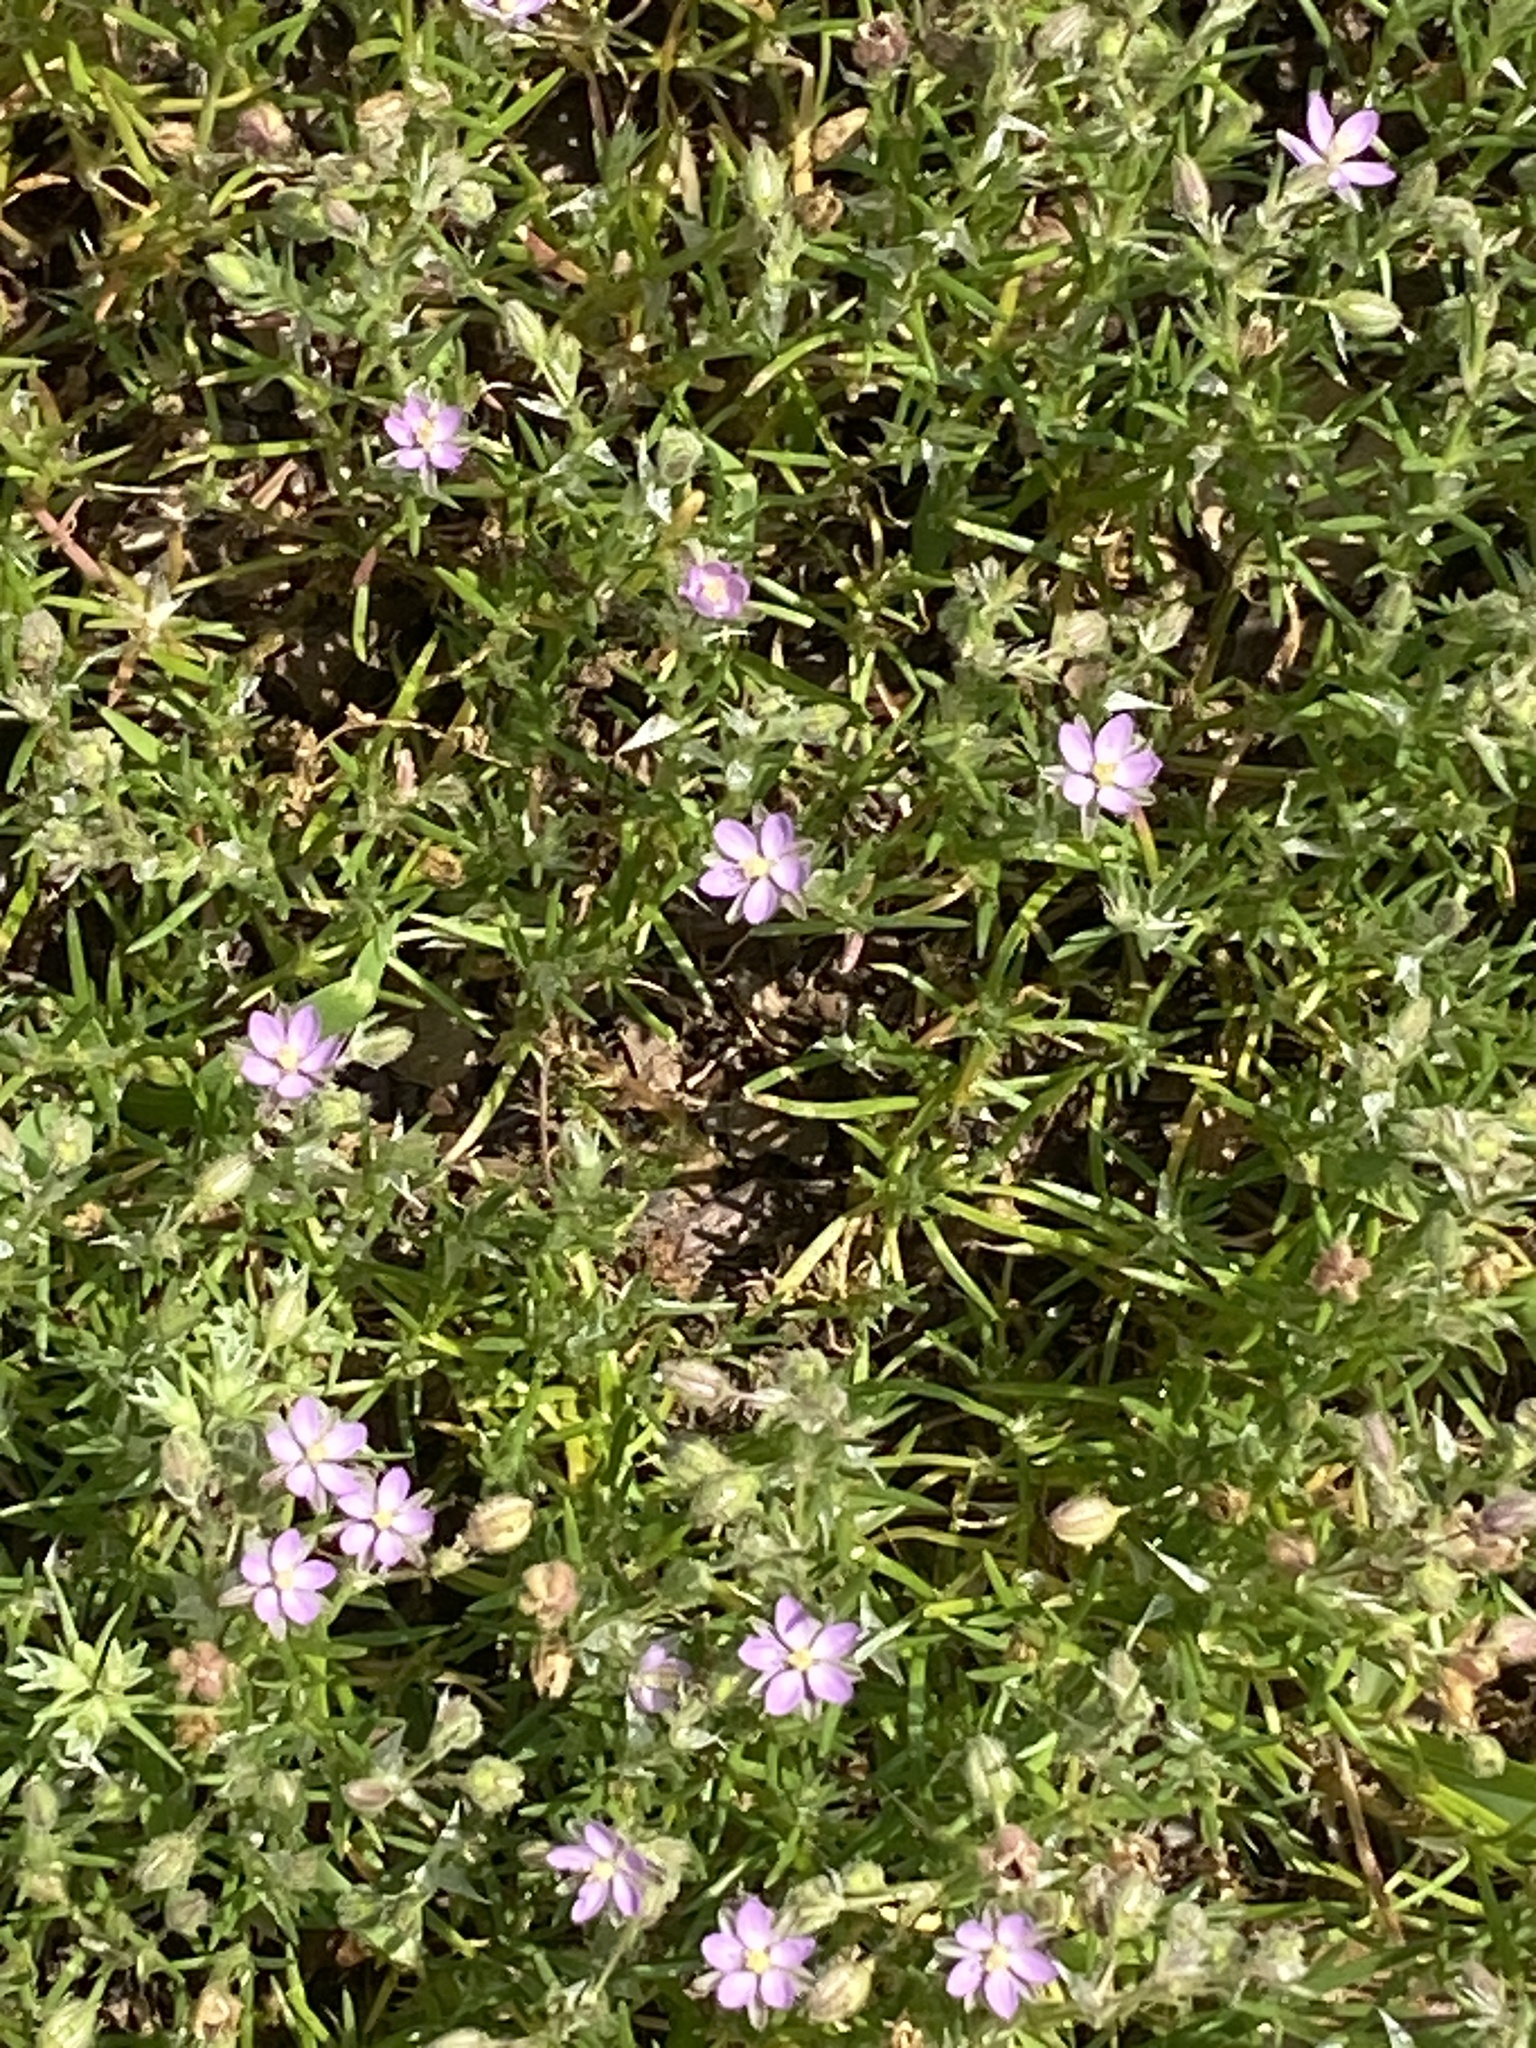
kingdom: Plantae
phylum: Tracheophyta
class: Magnoliopsida
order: Caryophyllales
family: Caryophyllaceae
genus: Spergularia
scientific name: Spergularia rubra
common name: Red sand-spurrey
